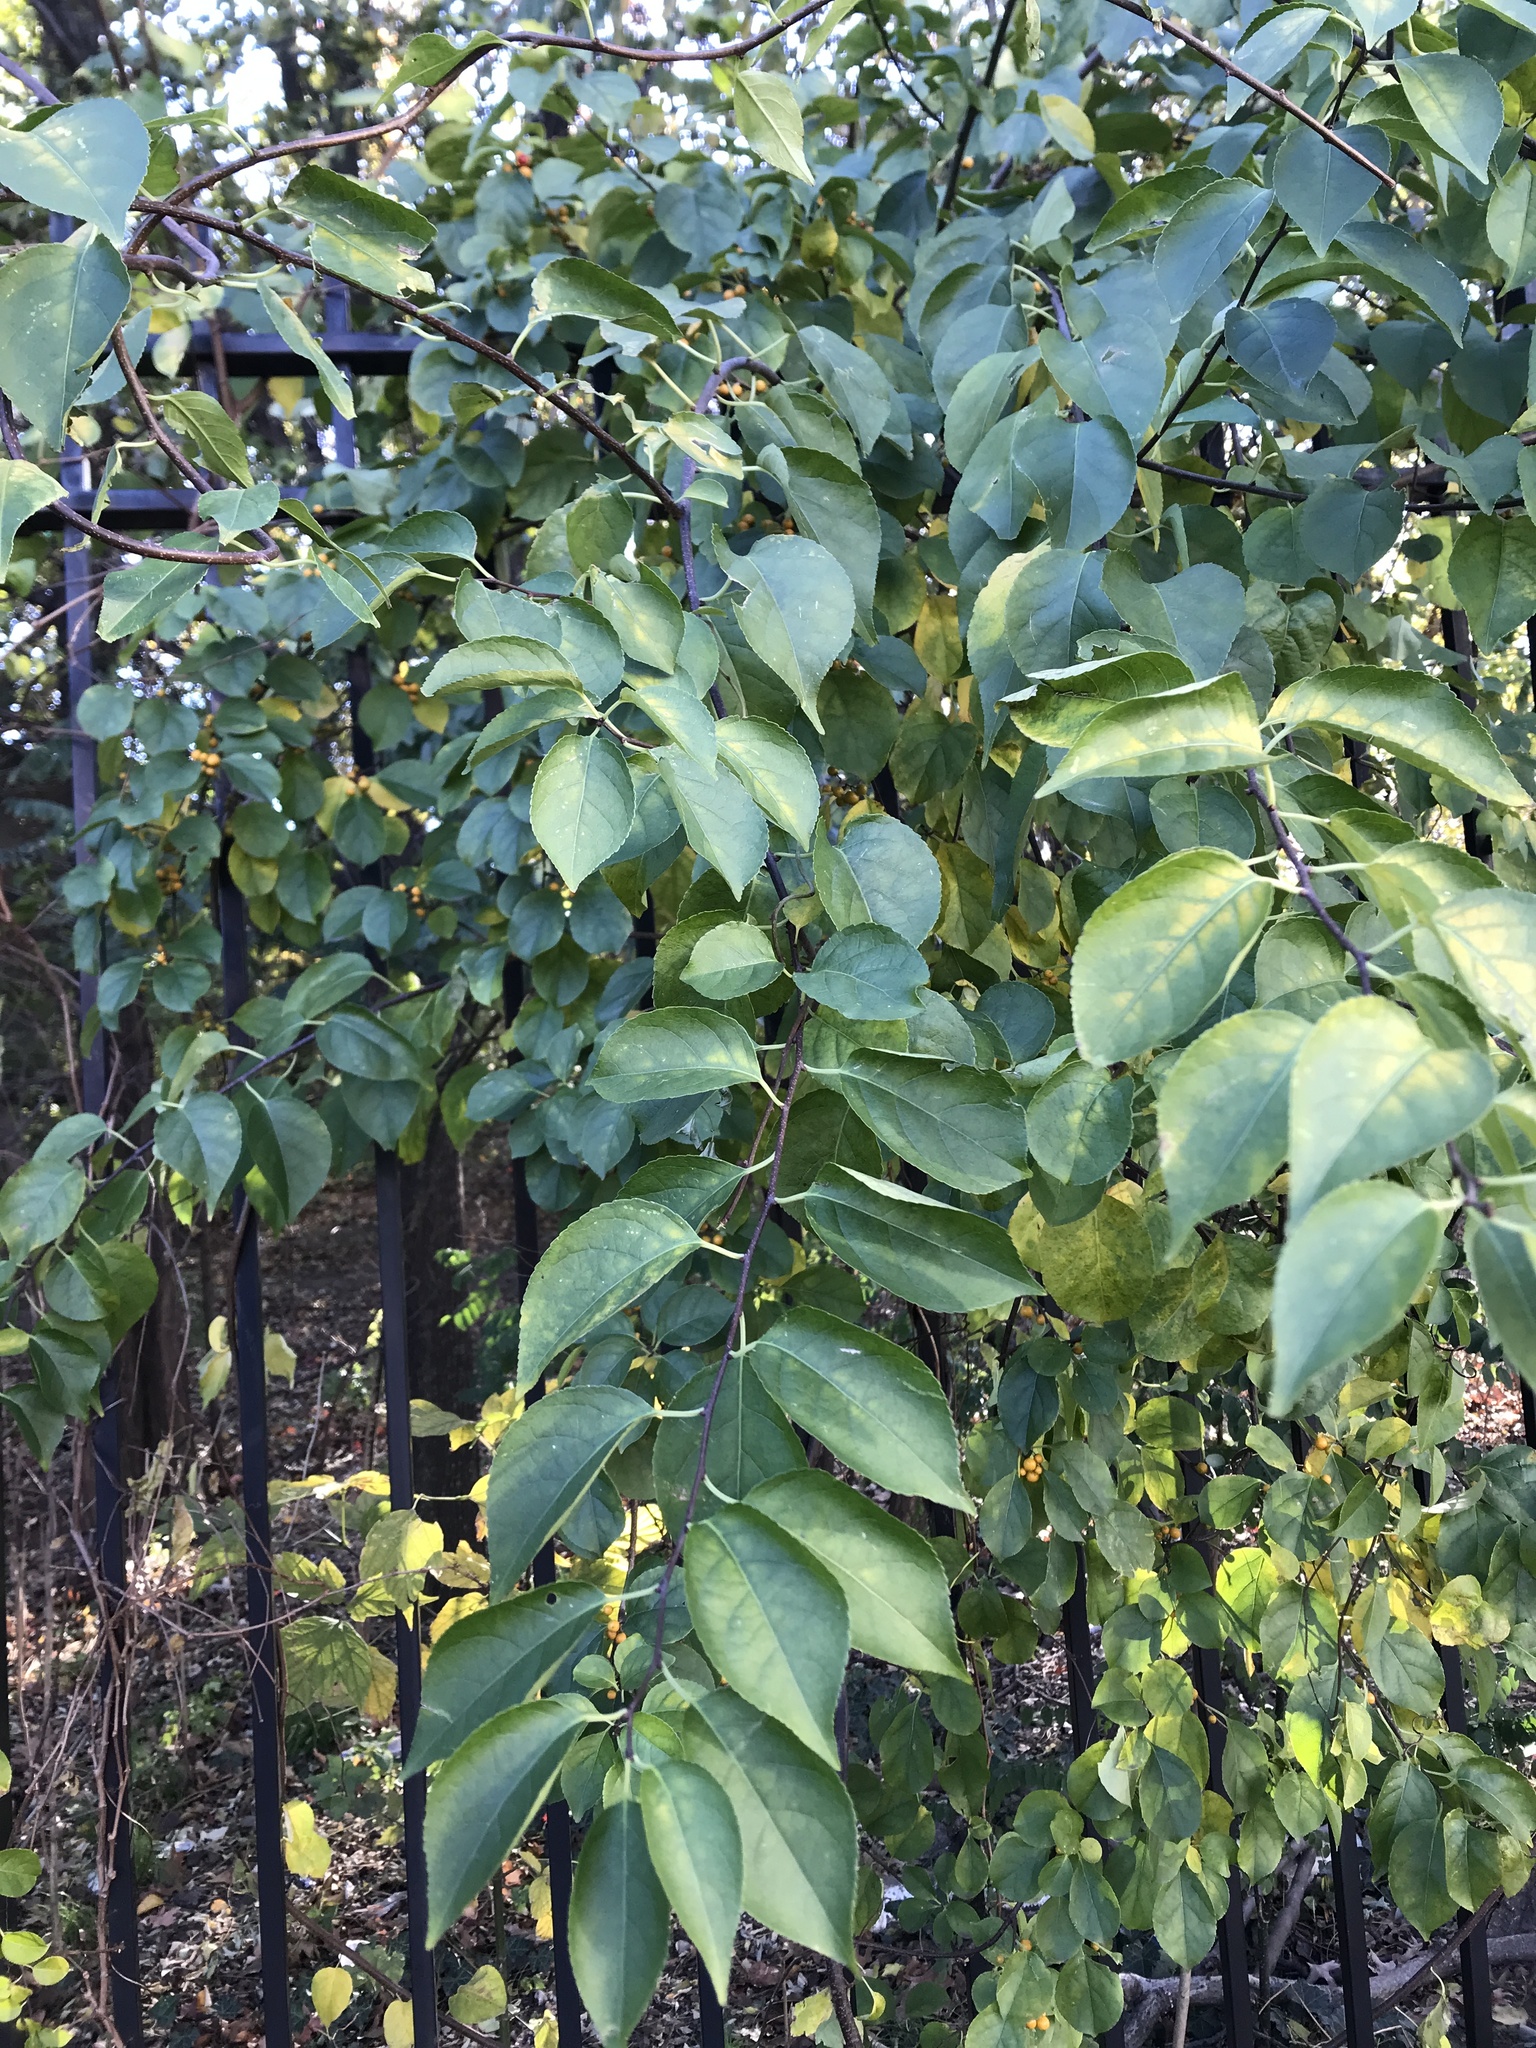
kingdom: Plantae
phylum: Tracheophyta
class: Magnoliopsida
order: Celastrales
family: Celastraceae
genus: Celastrus
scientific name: Celastrus orbiculatus
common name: Oriental bittersweet
